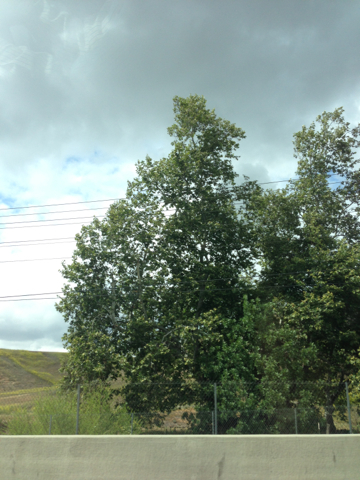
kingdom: Plantae
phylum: Tracheophyta
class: Magnoliopsida
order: Proteales
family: Platanaceae
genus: Platanus
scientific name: Platanus racemosa
